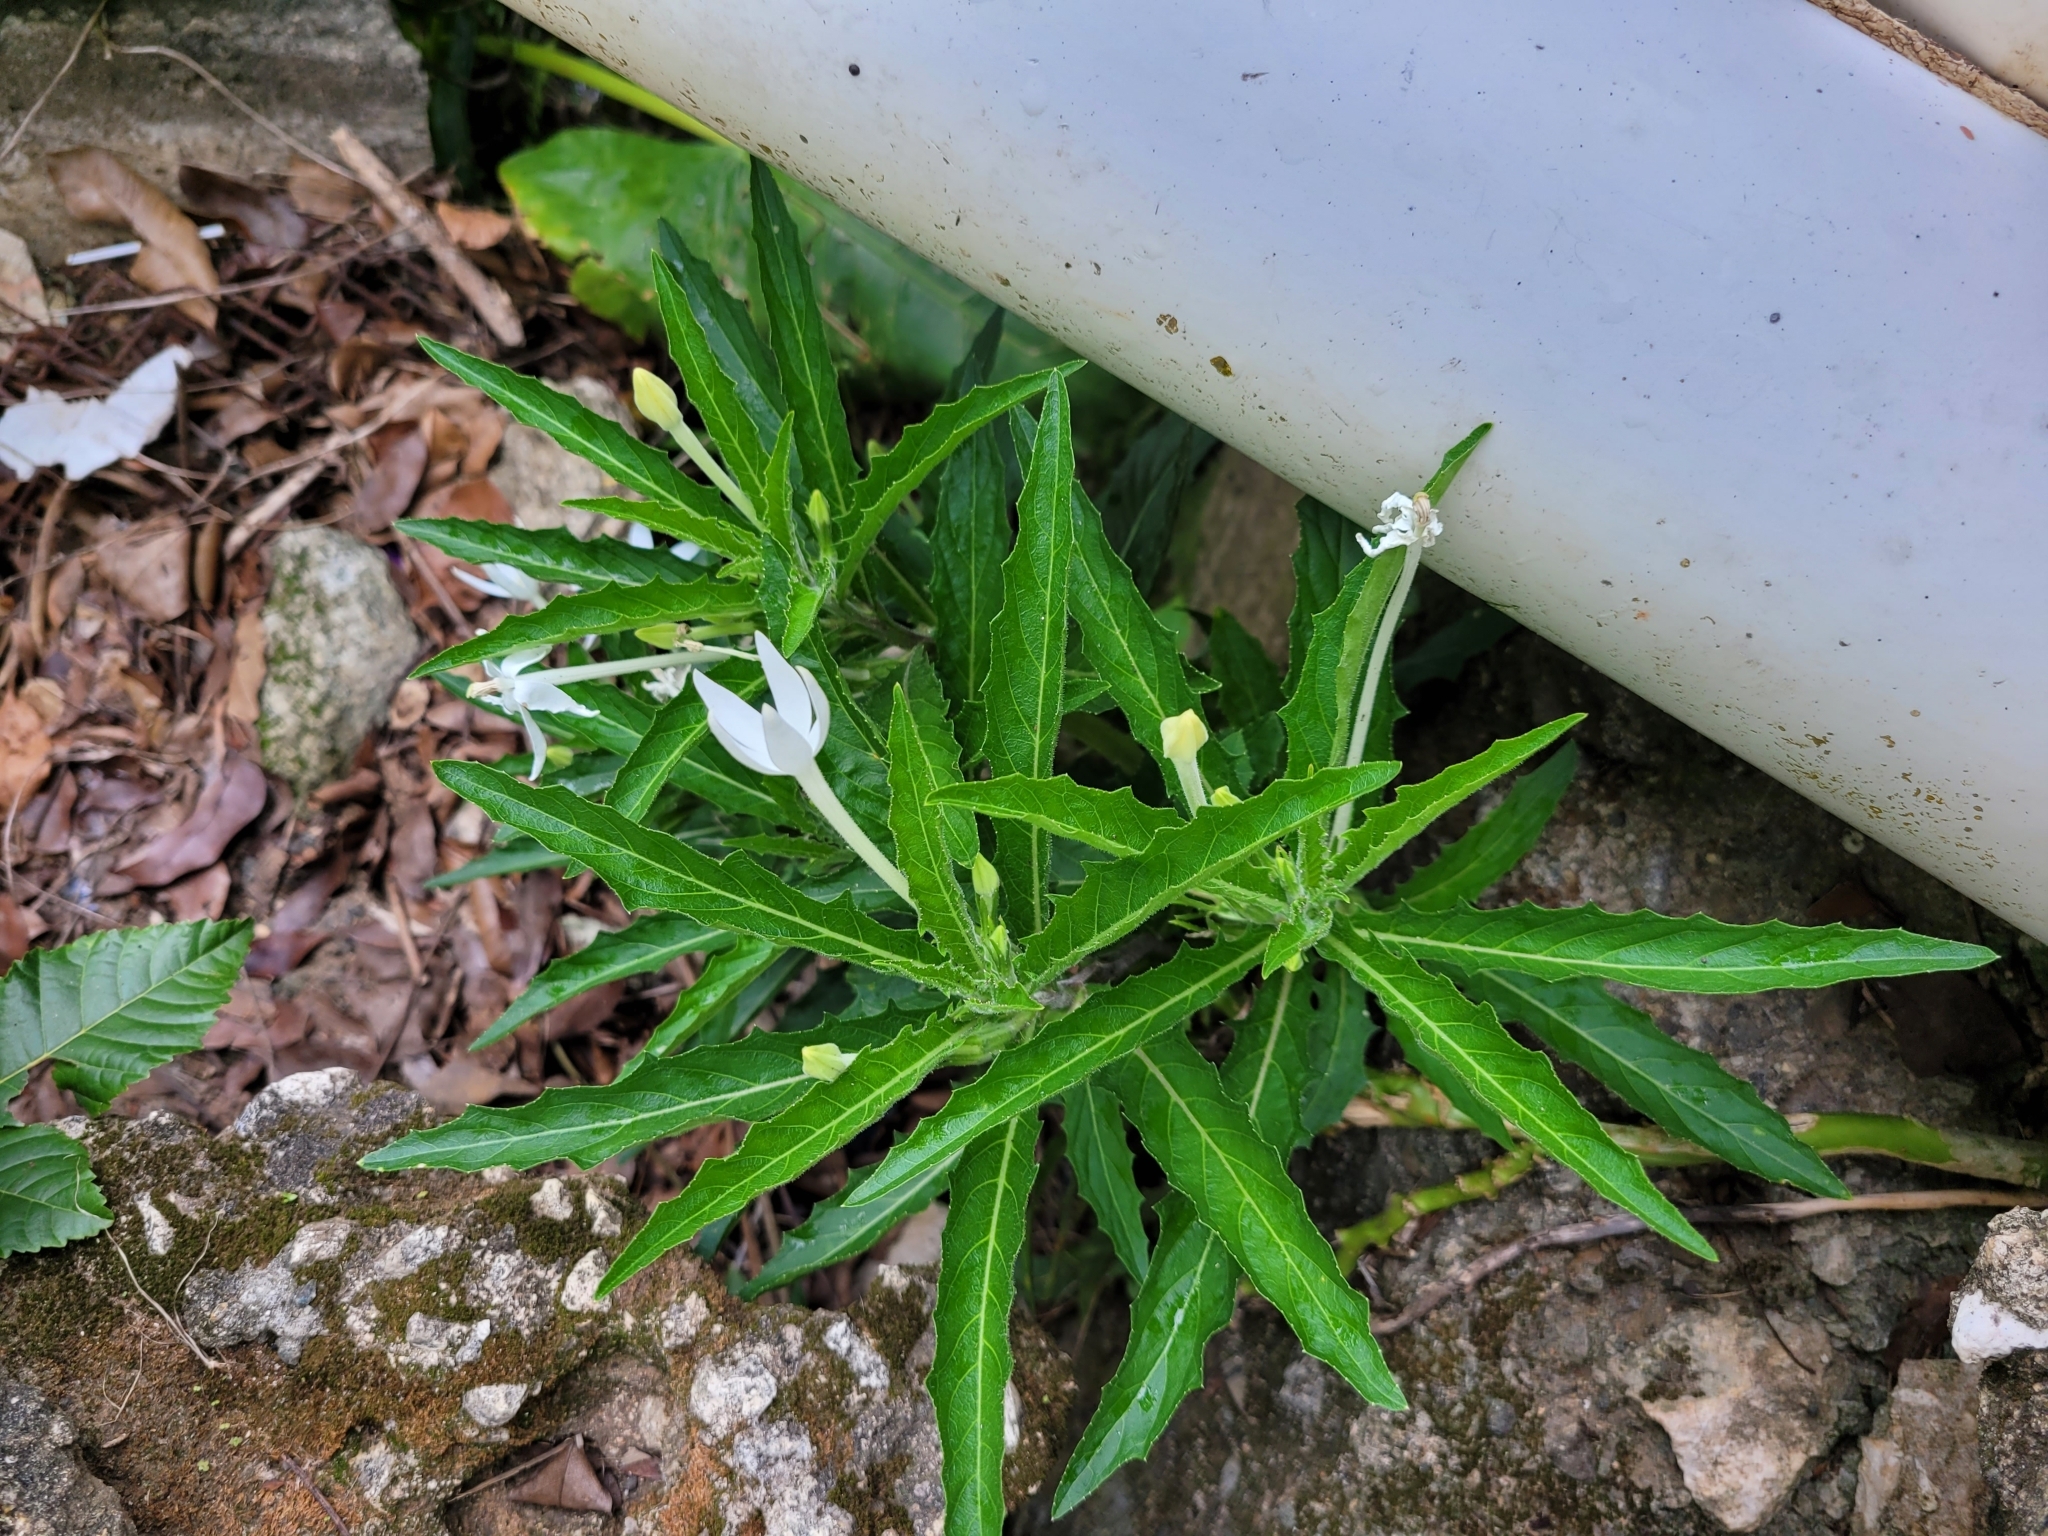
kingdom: Plantae
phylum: Tracheophyta
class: Magnoliopsida
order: Asterales
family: Campanulaceae
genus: Hippobroma
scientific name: Hippobroma longiflora
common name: Madamfate
